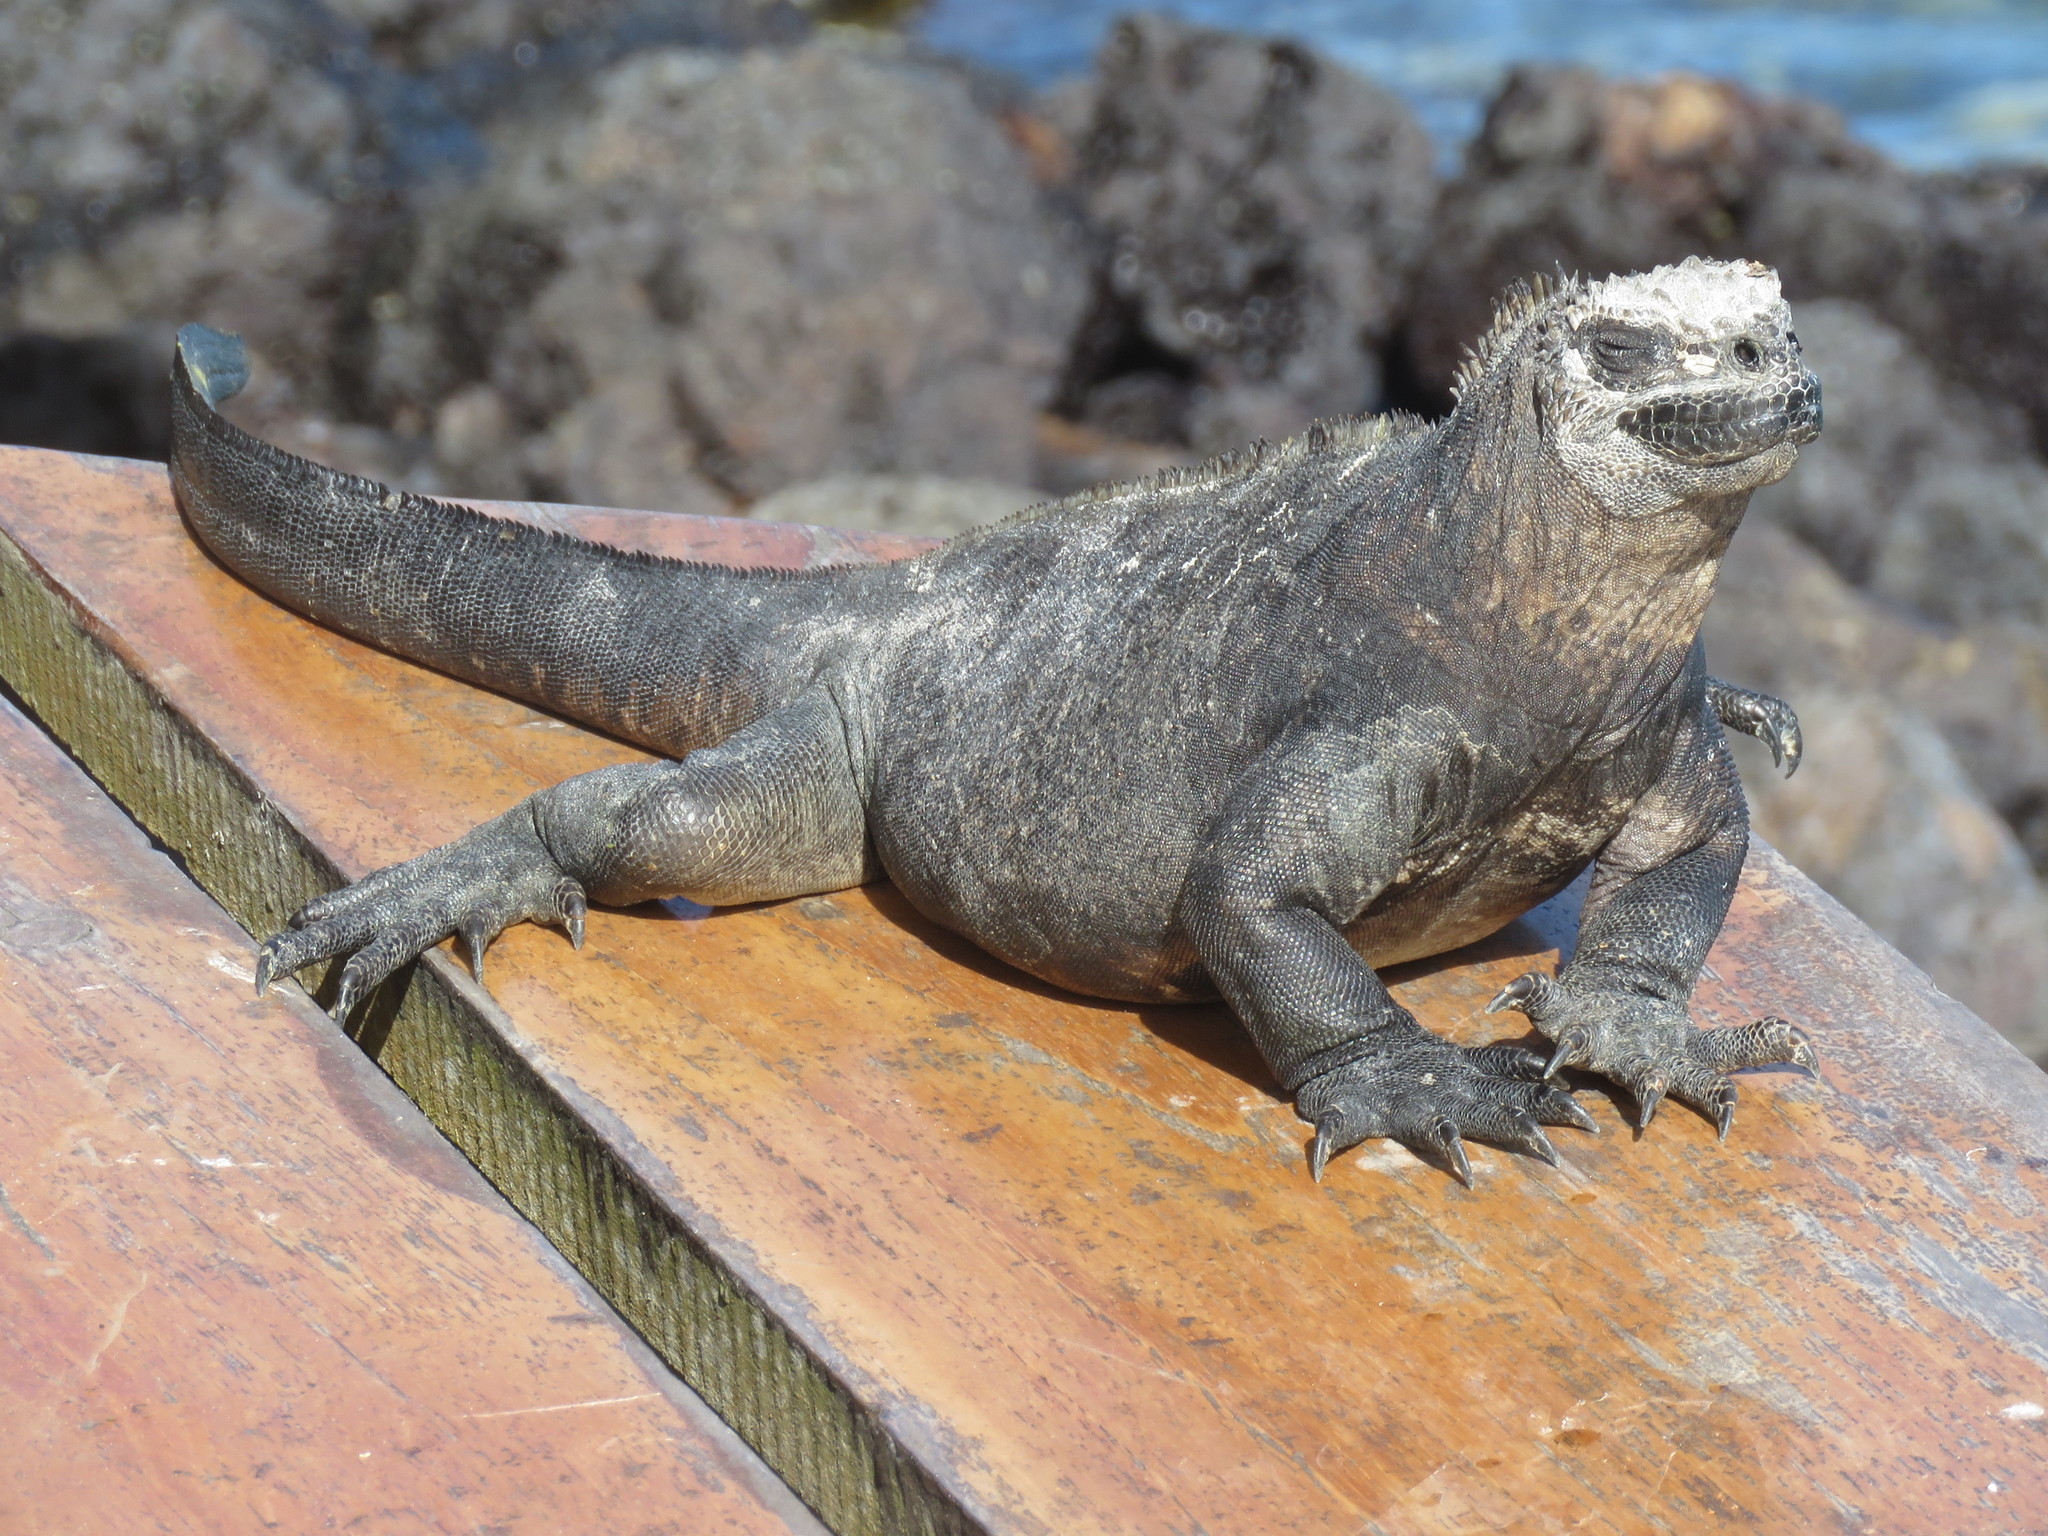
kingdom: Animalia
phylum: Chordata
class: Squamata
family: Iguanidae
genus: Amblyrhynchus
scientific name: Amblyrhynchus cristatus
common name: Marine iguana
